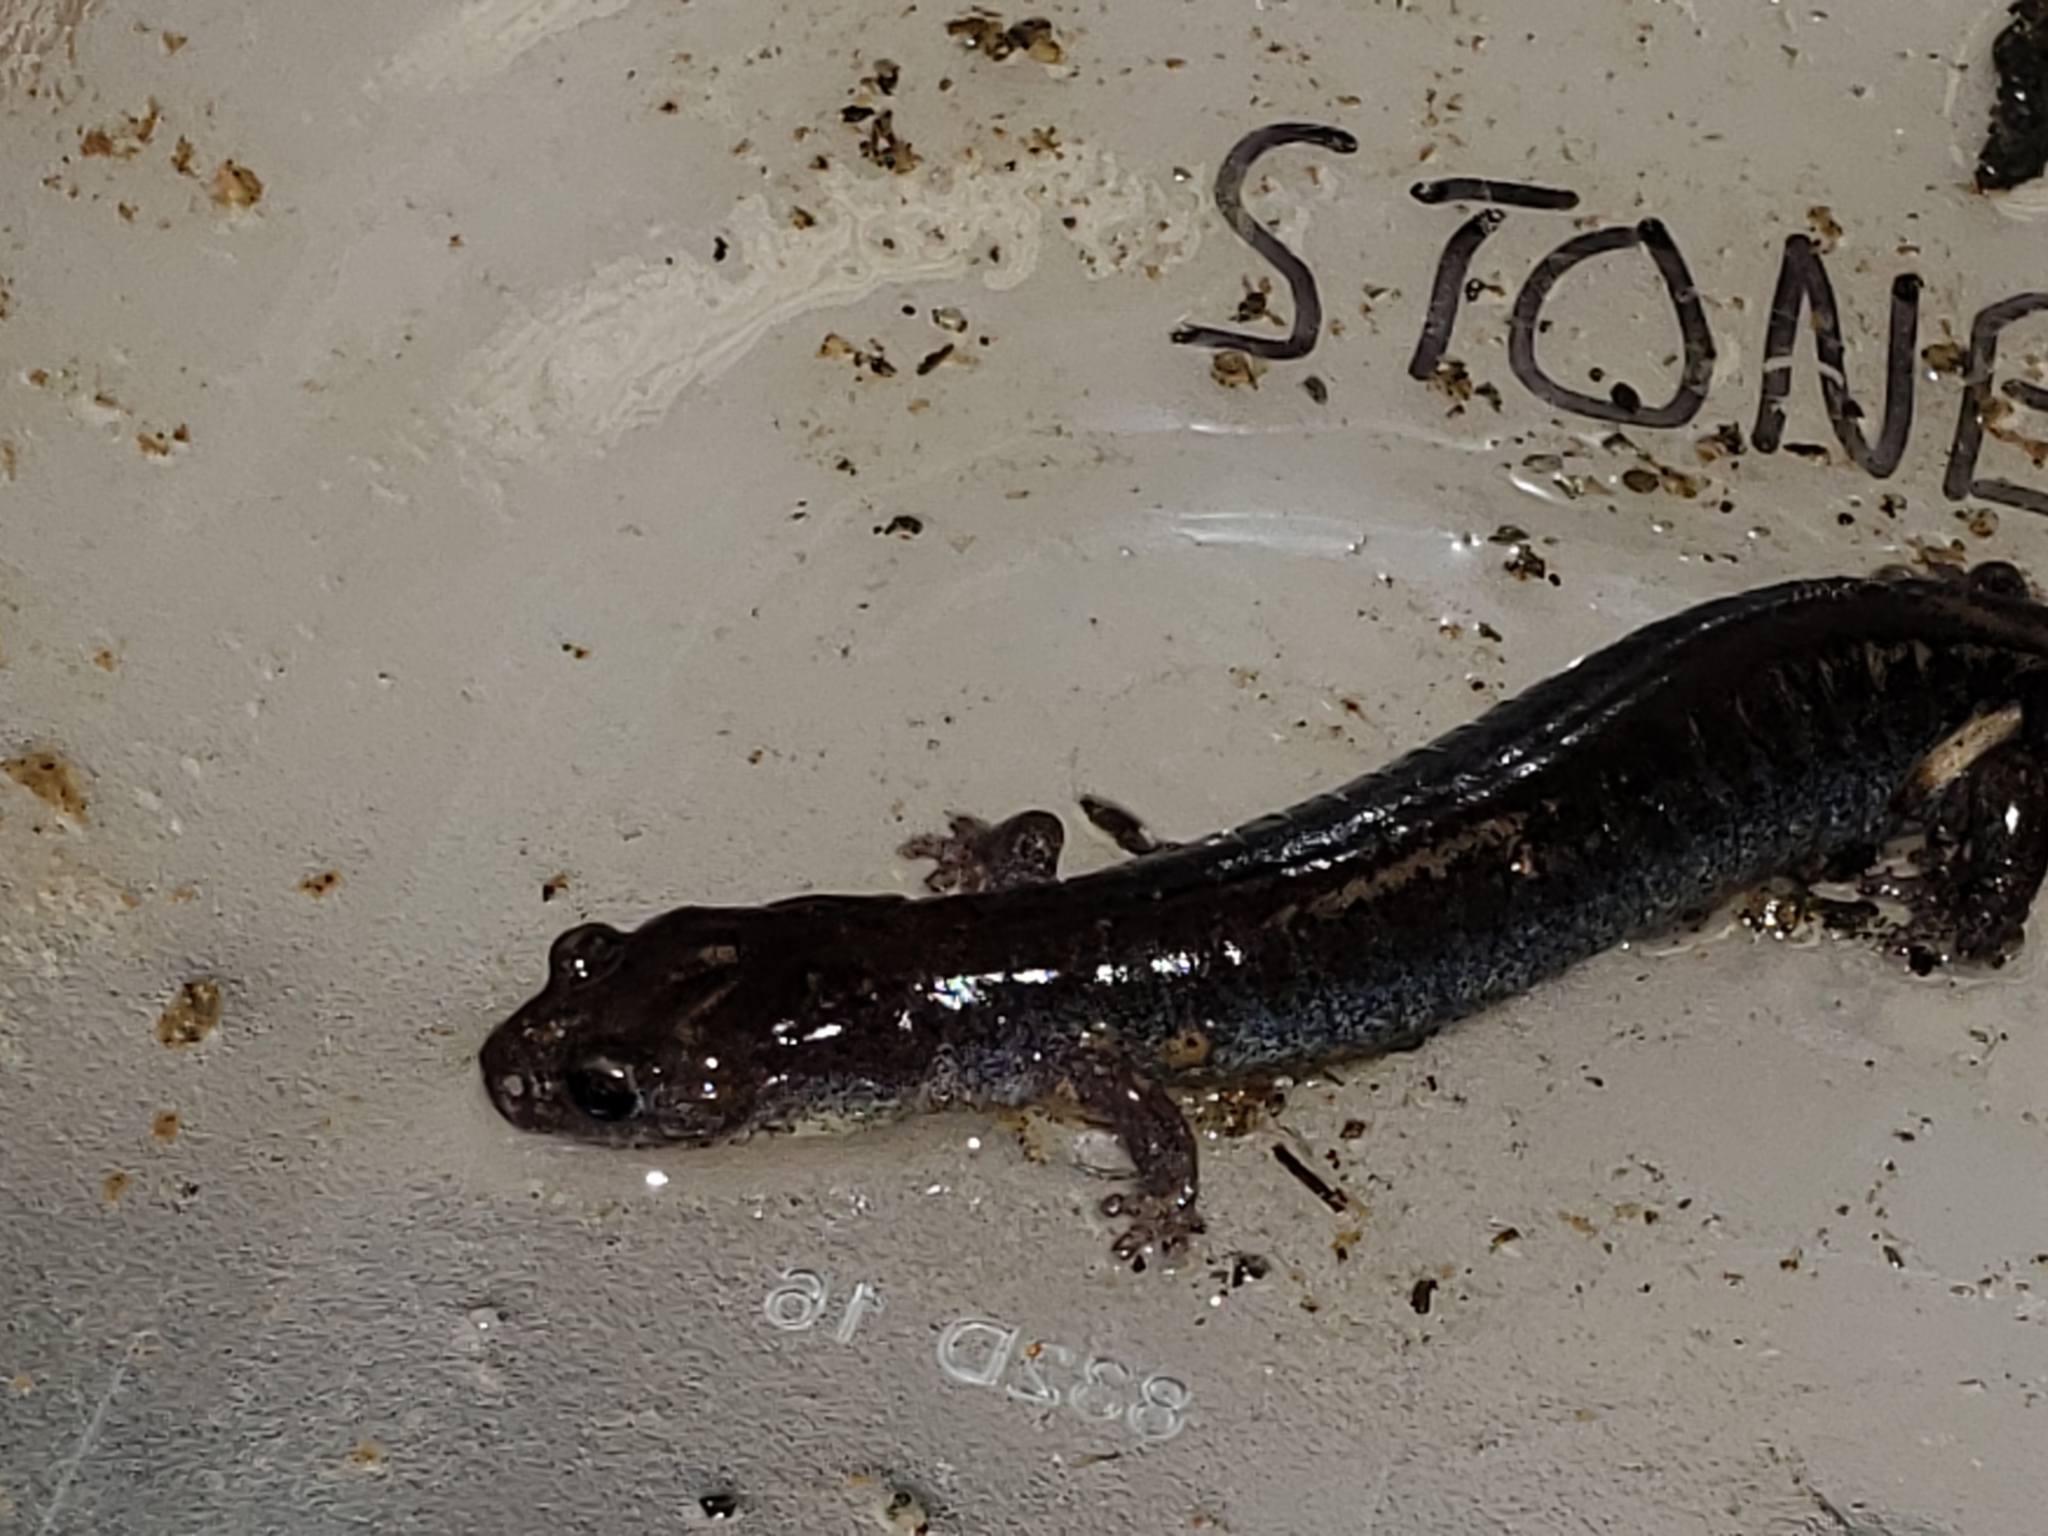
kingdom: Animalia
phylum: Chordata
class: Amphibia
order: Caudata
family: Plethodontidae
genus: Plethodon
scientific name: Plethodon cinereus
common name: Redback salamander
